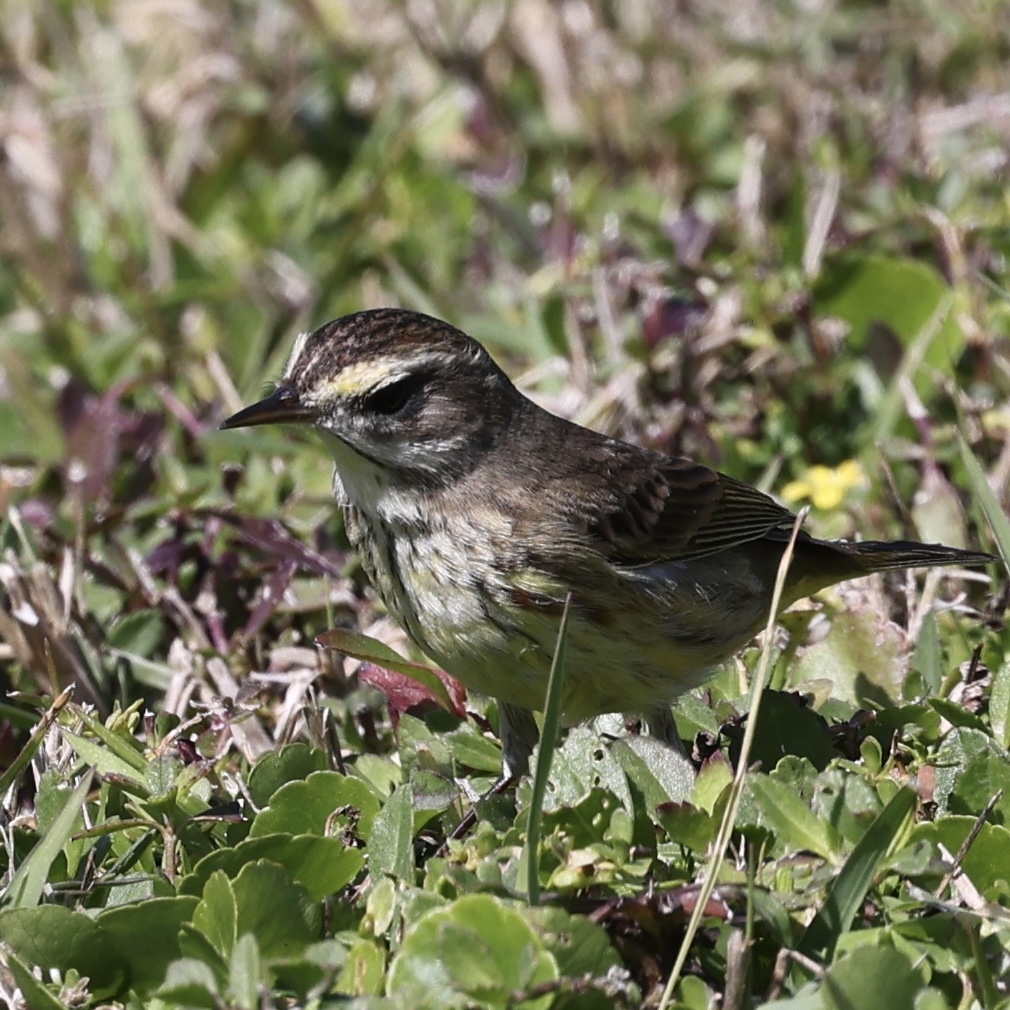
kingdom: Animalia
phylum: Chordata
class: Aves
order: Passeriformes
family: Parulidae
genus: Setophaga
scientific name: Setophaga palmarum
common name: Palm warbler
